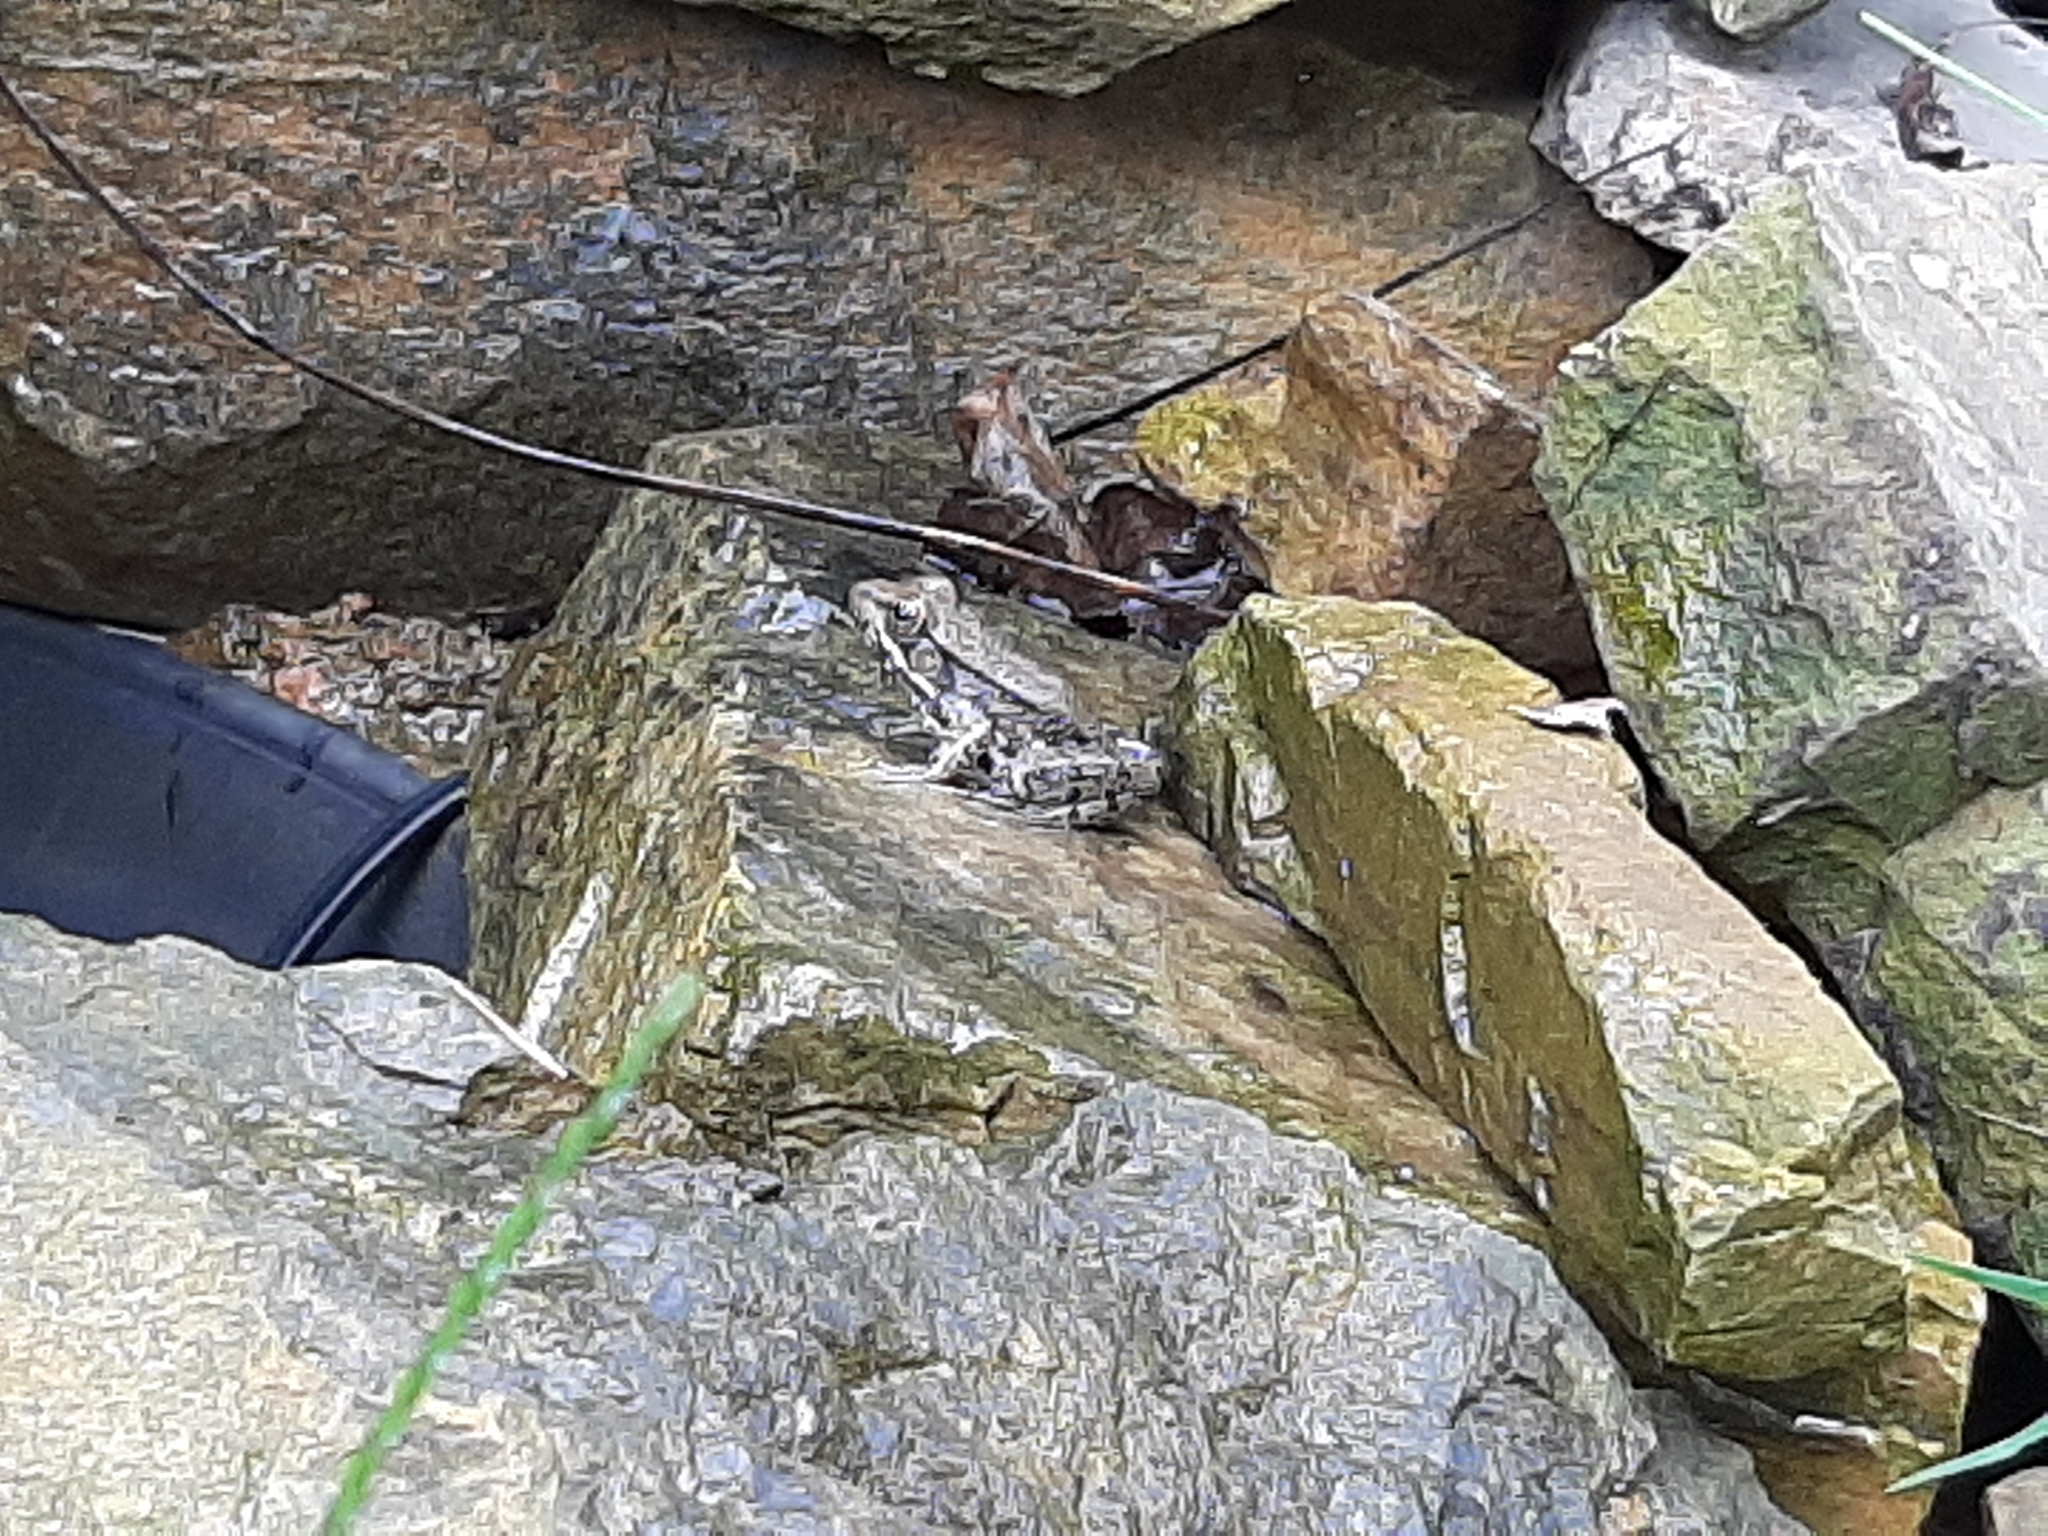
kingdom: Animalia
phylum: Chordata
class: Amphibia
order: Anura
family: Ranidae
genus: Lithobates
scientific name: Lithobates clamitans
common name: Green frog
